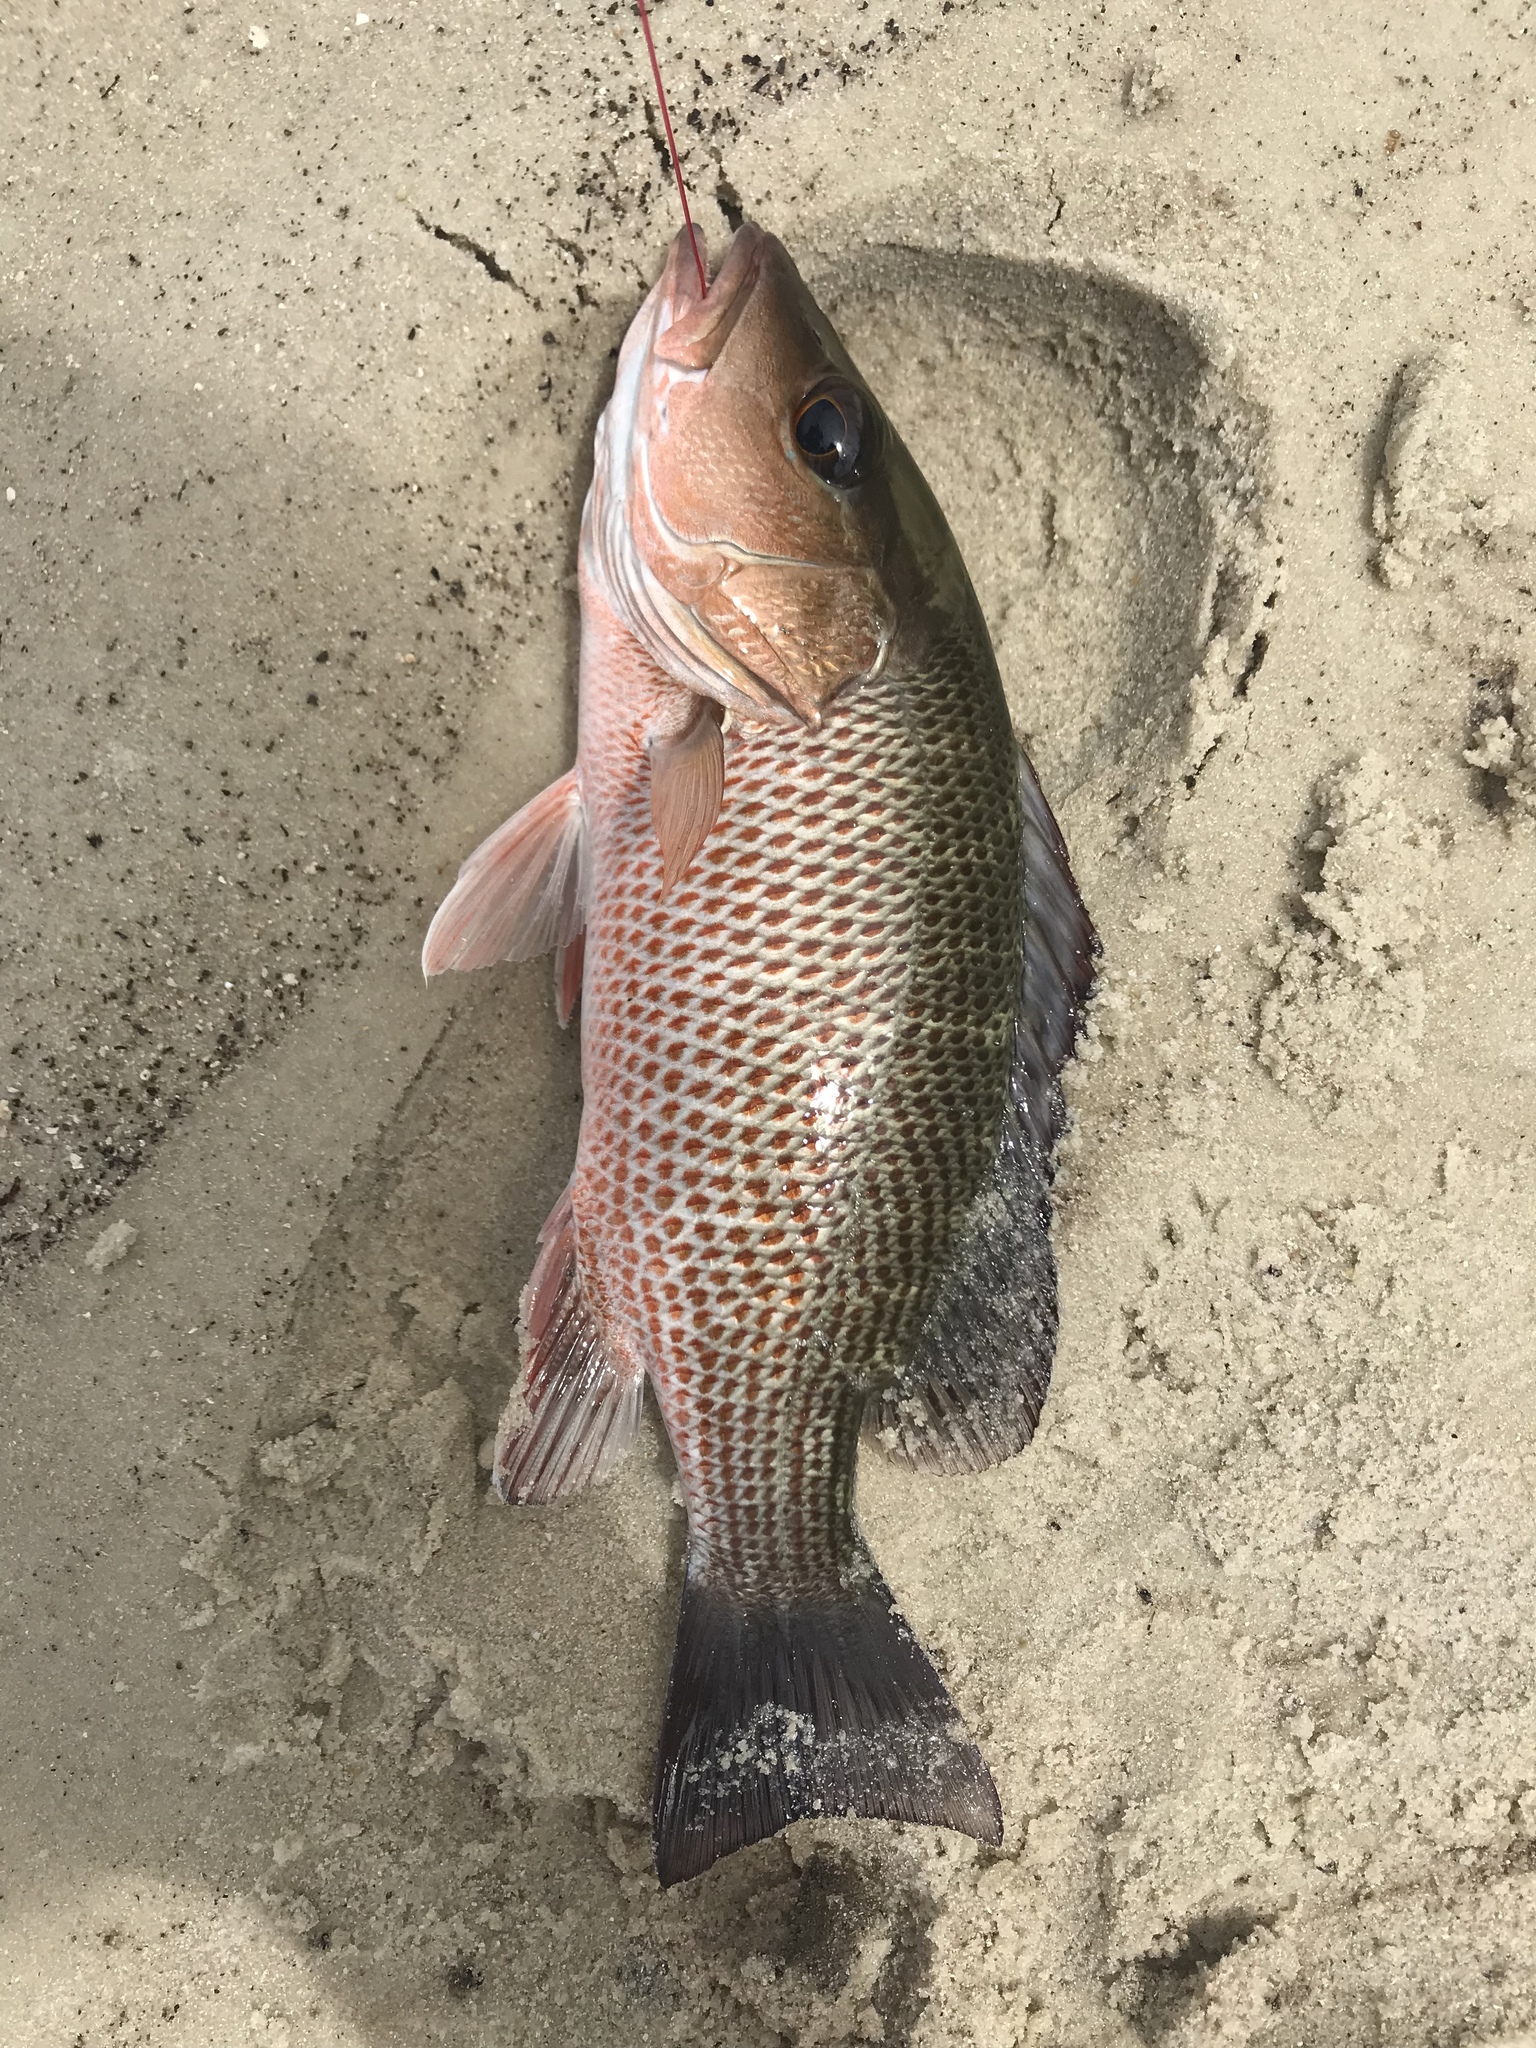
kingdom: Animalia
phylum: Chordata
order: Perciformes
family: Lutjanidae
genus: Lutjanus
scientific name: Lutjanus griseus
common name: Gray snapper
